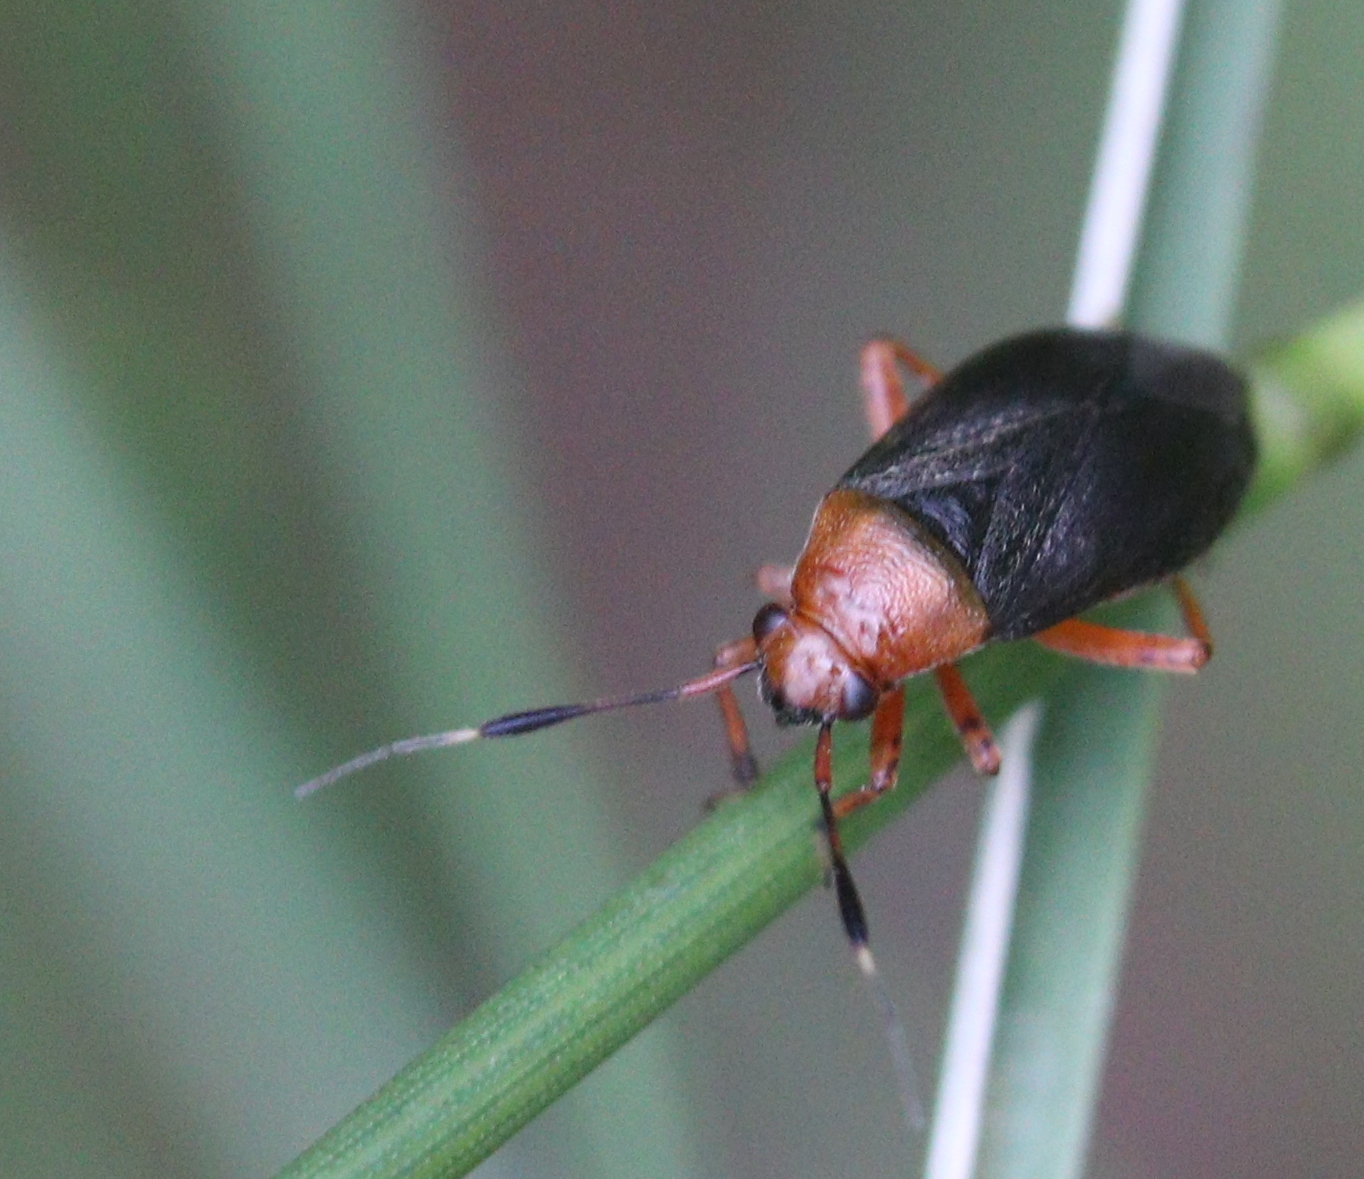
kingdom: Animalia
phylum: Arthropoda
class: Insecta
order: Hemiptera
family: Miridae
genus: Capsus
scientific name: Capsus ater
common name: Black plant bug
